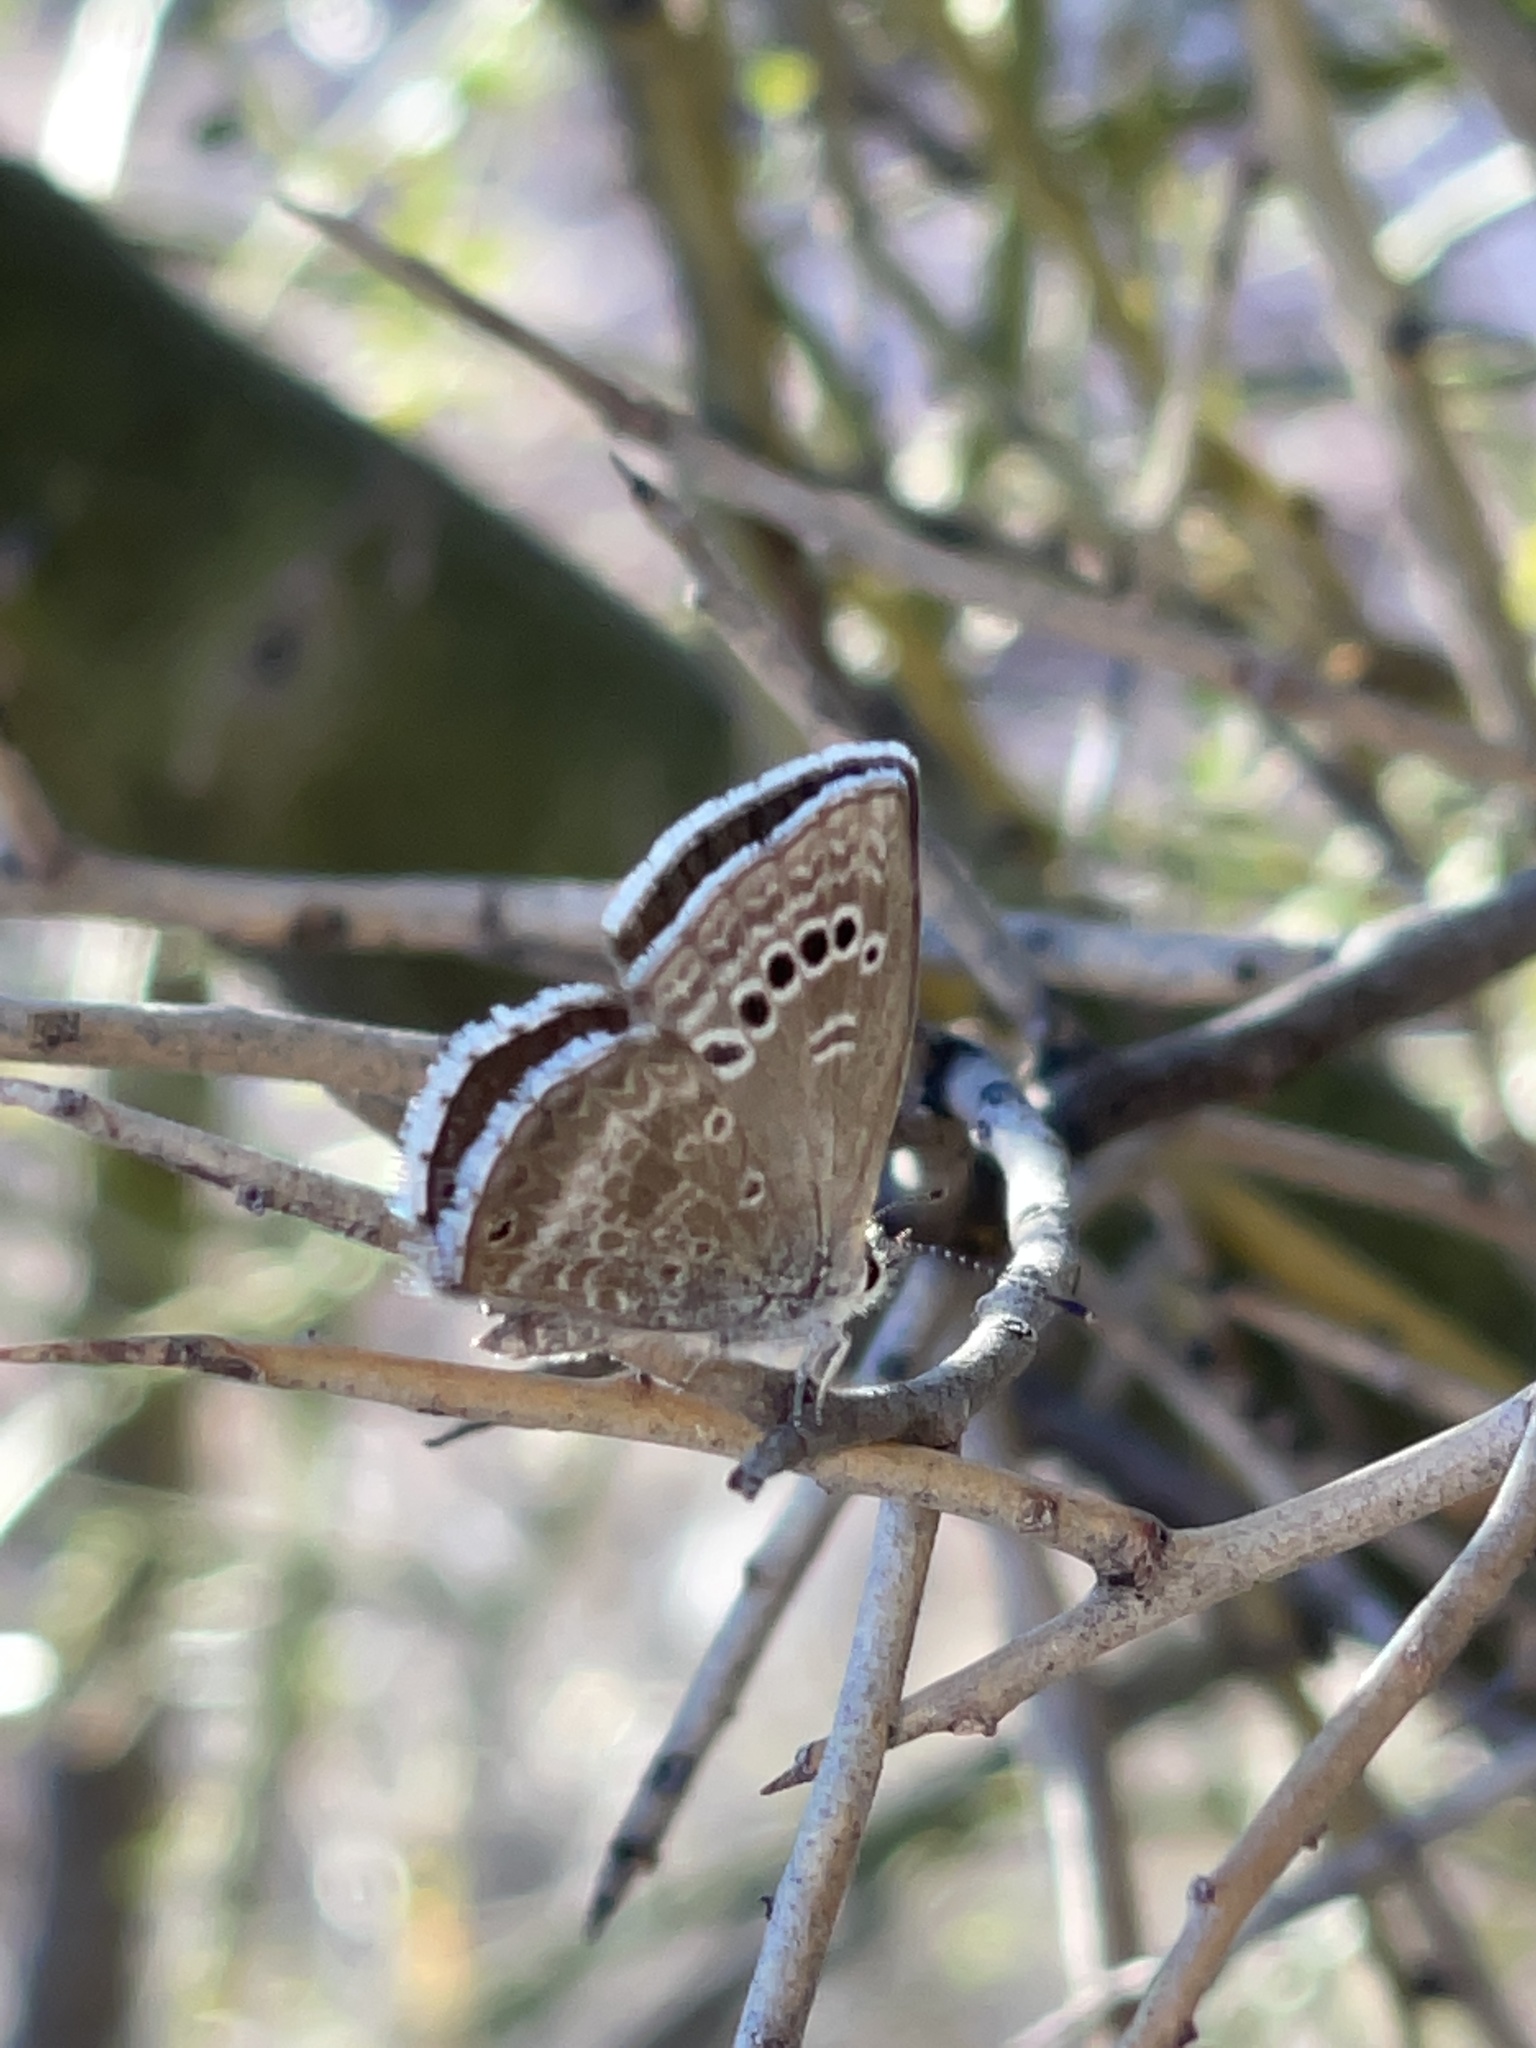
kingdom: Animalia
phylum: Arthropoda
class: Insecta
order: Lepidoptera
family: Lycaenidae
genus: Echinargus
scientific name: Echinargus isola
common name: Reakirt's blue
